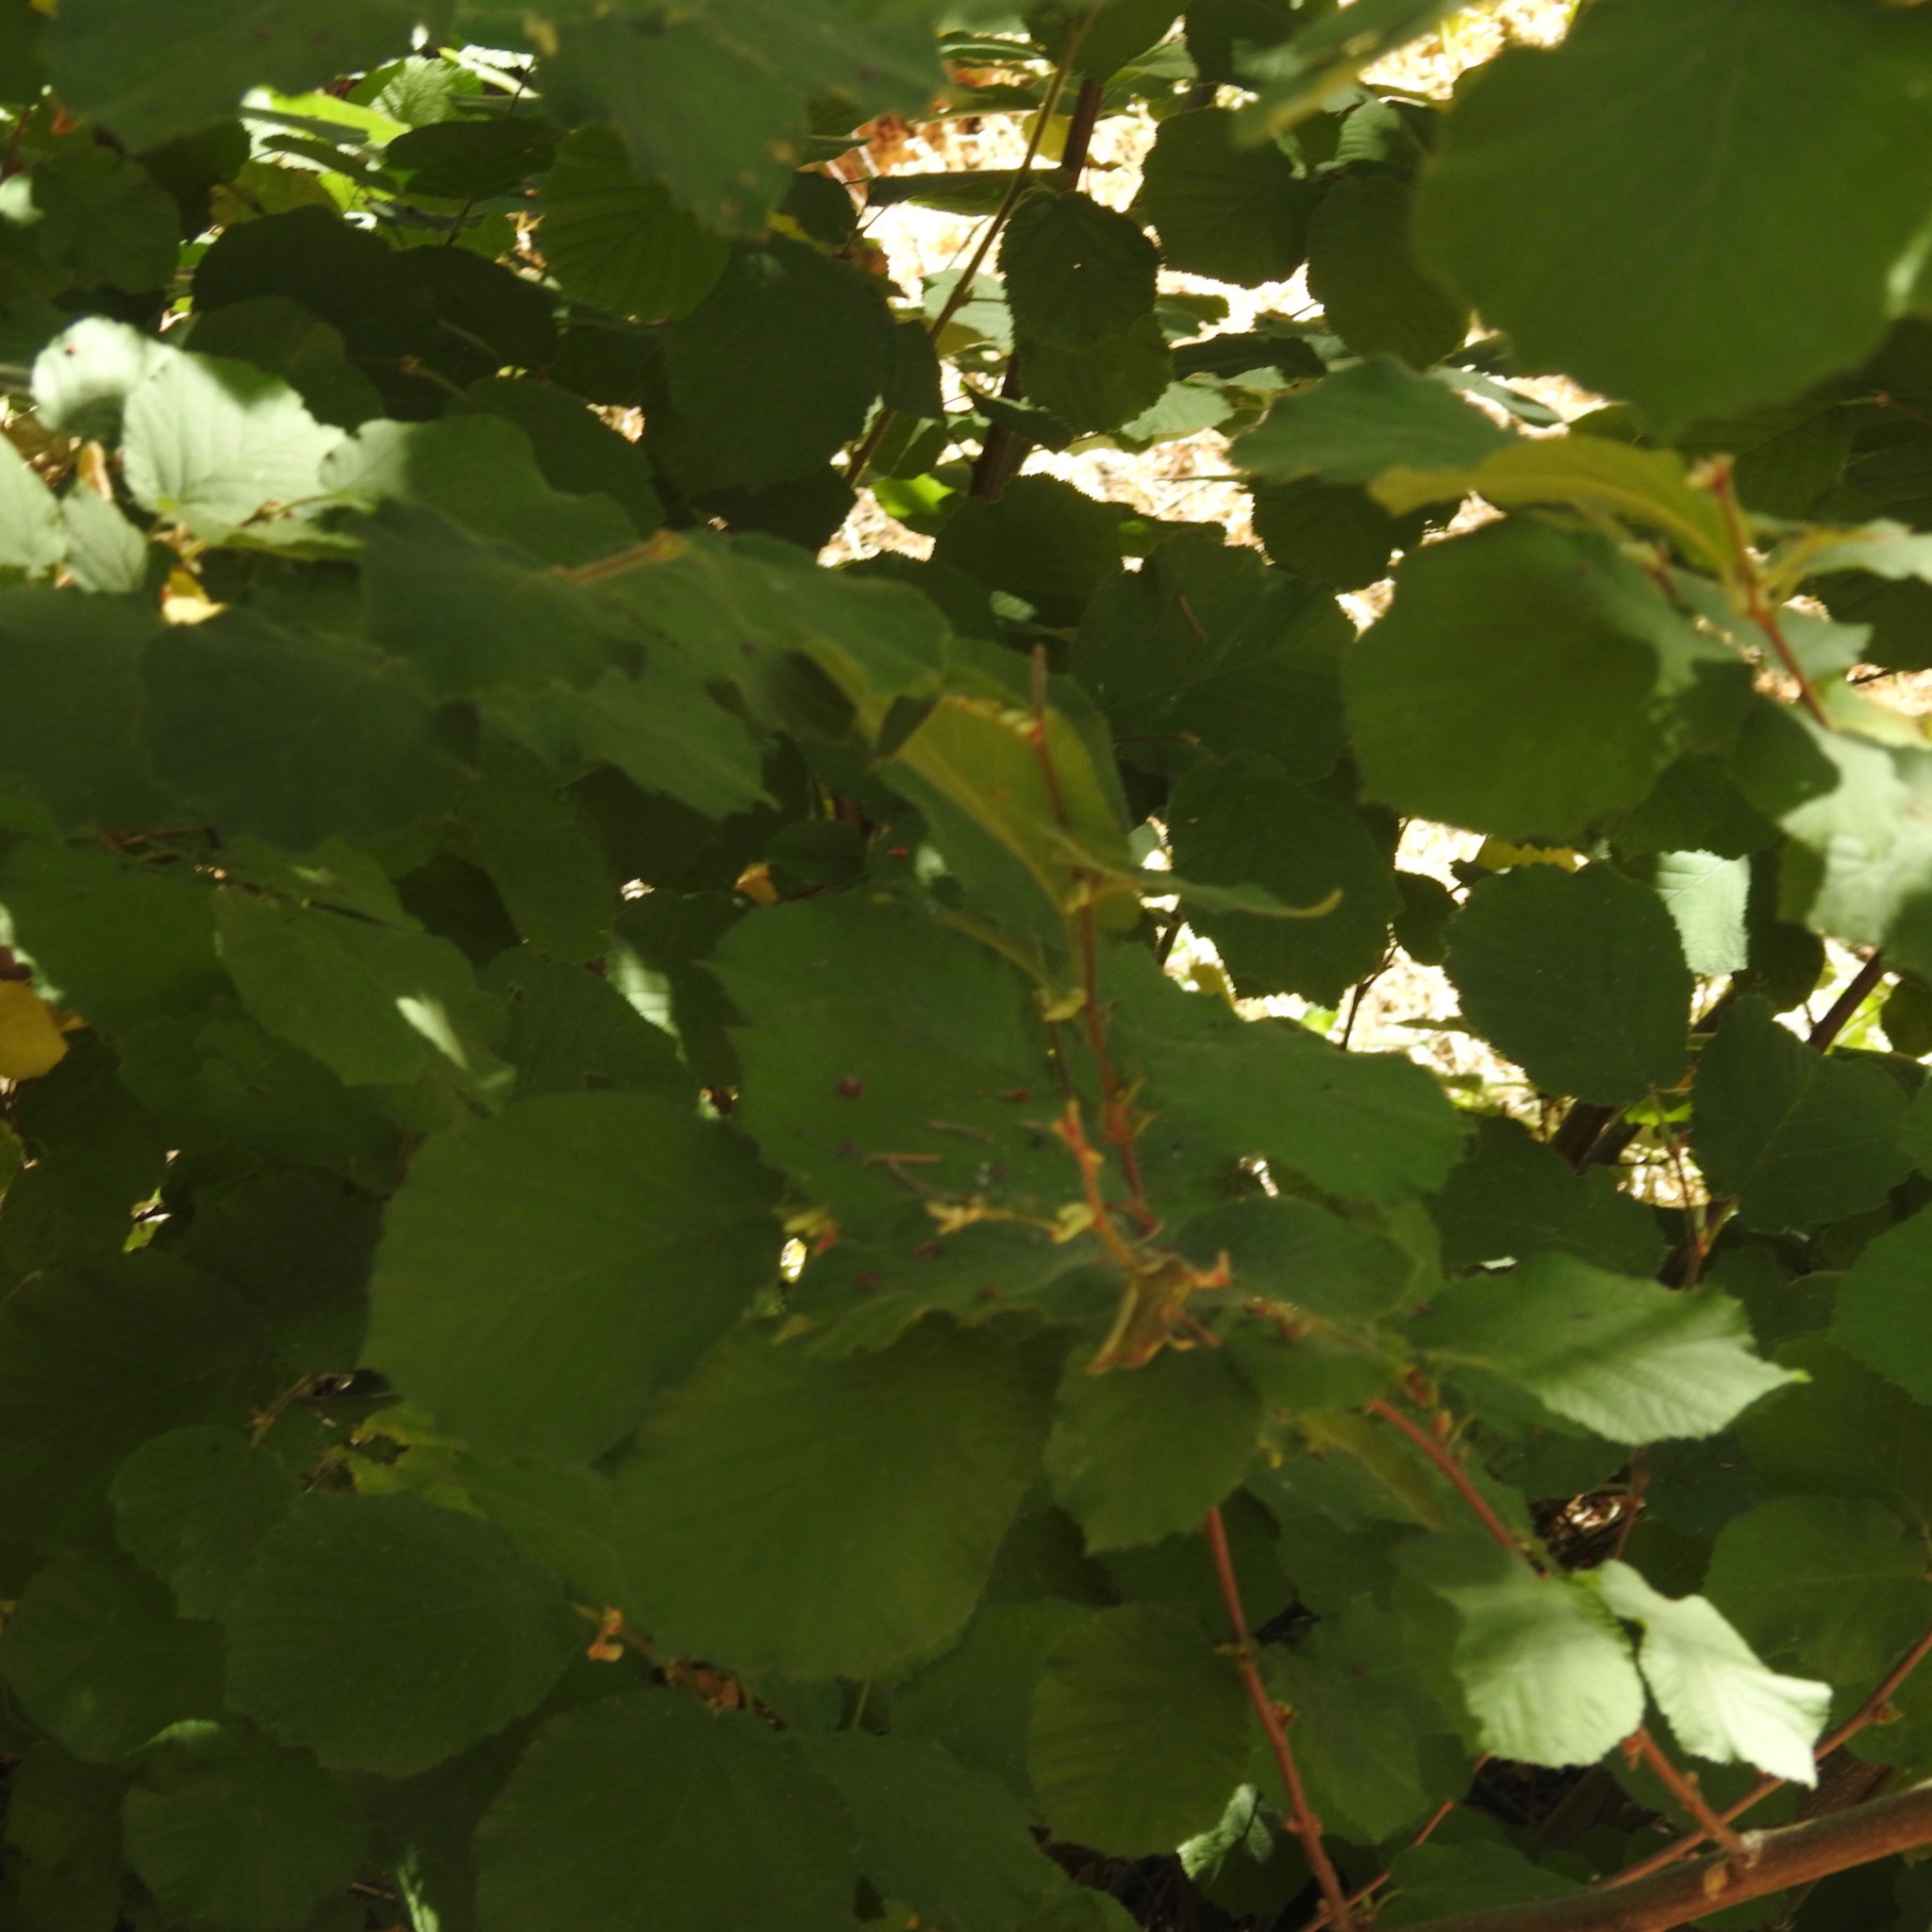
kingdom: Plantae
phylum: Tracheophyta
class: Magnoliopsida
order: Fagales
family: Betulaceae
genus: Corylus
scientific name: Corylus cornuta
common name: Beaked hazel
